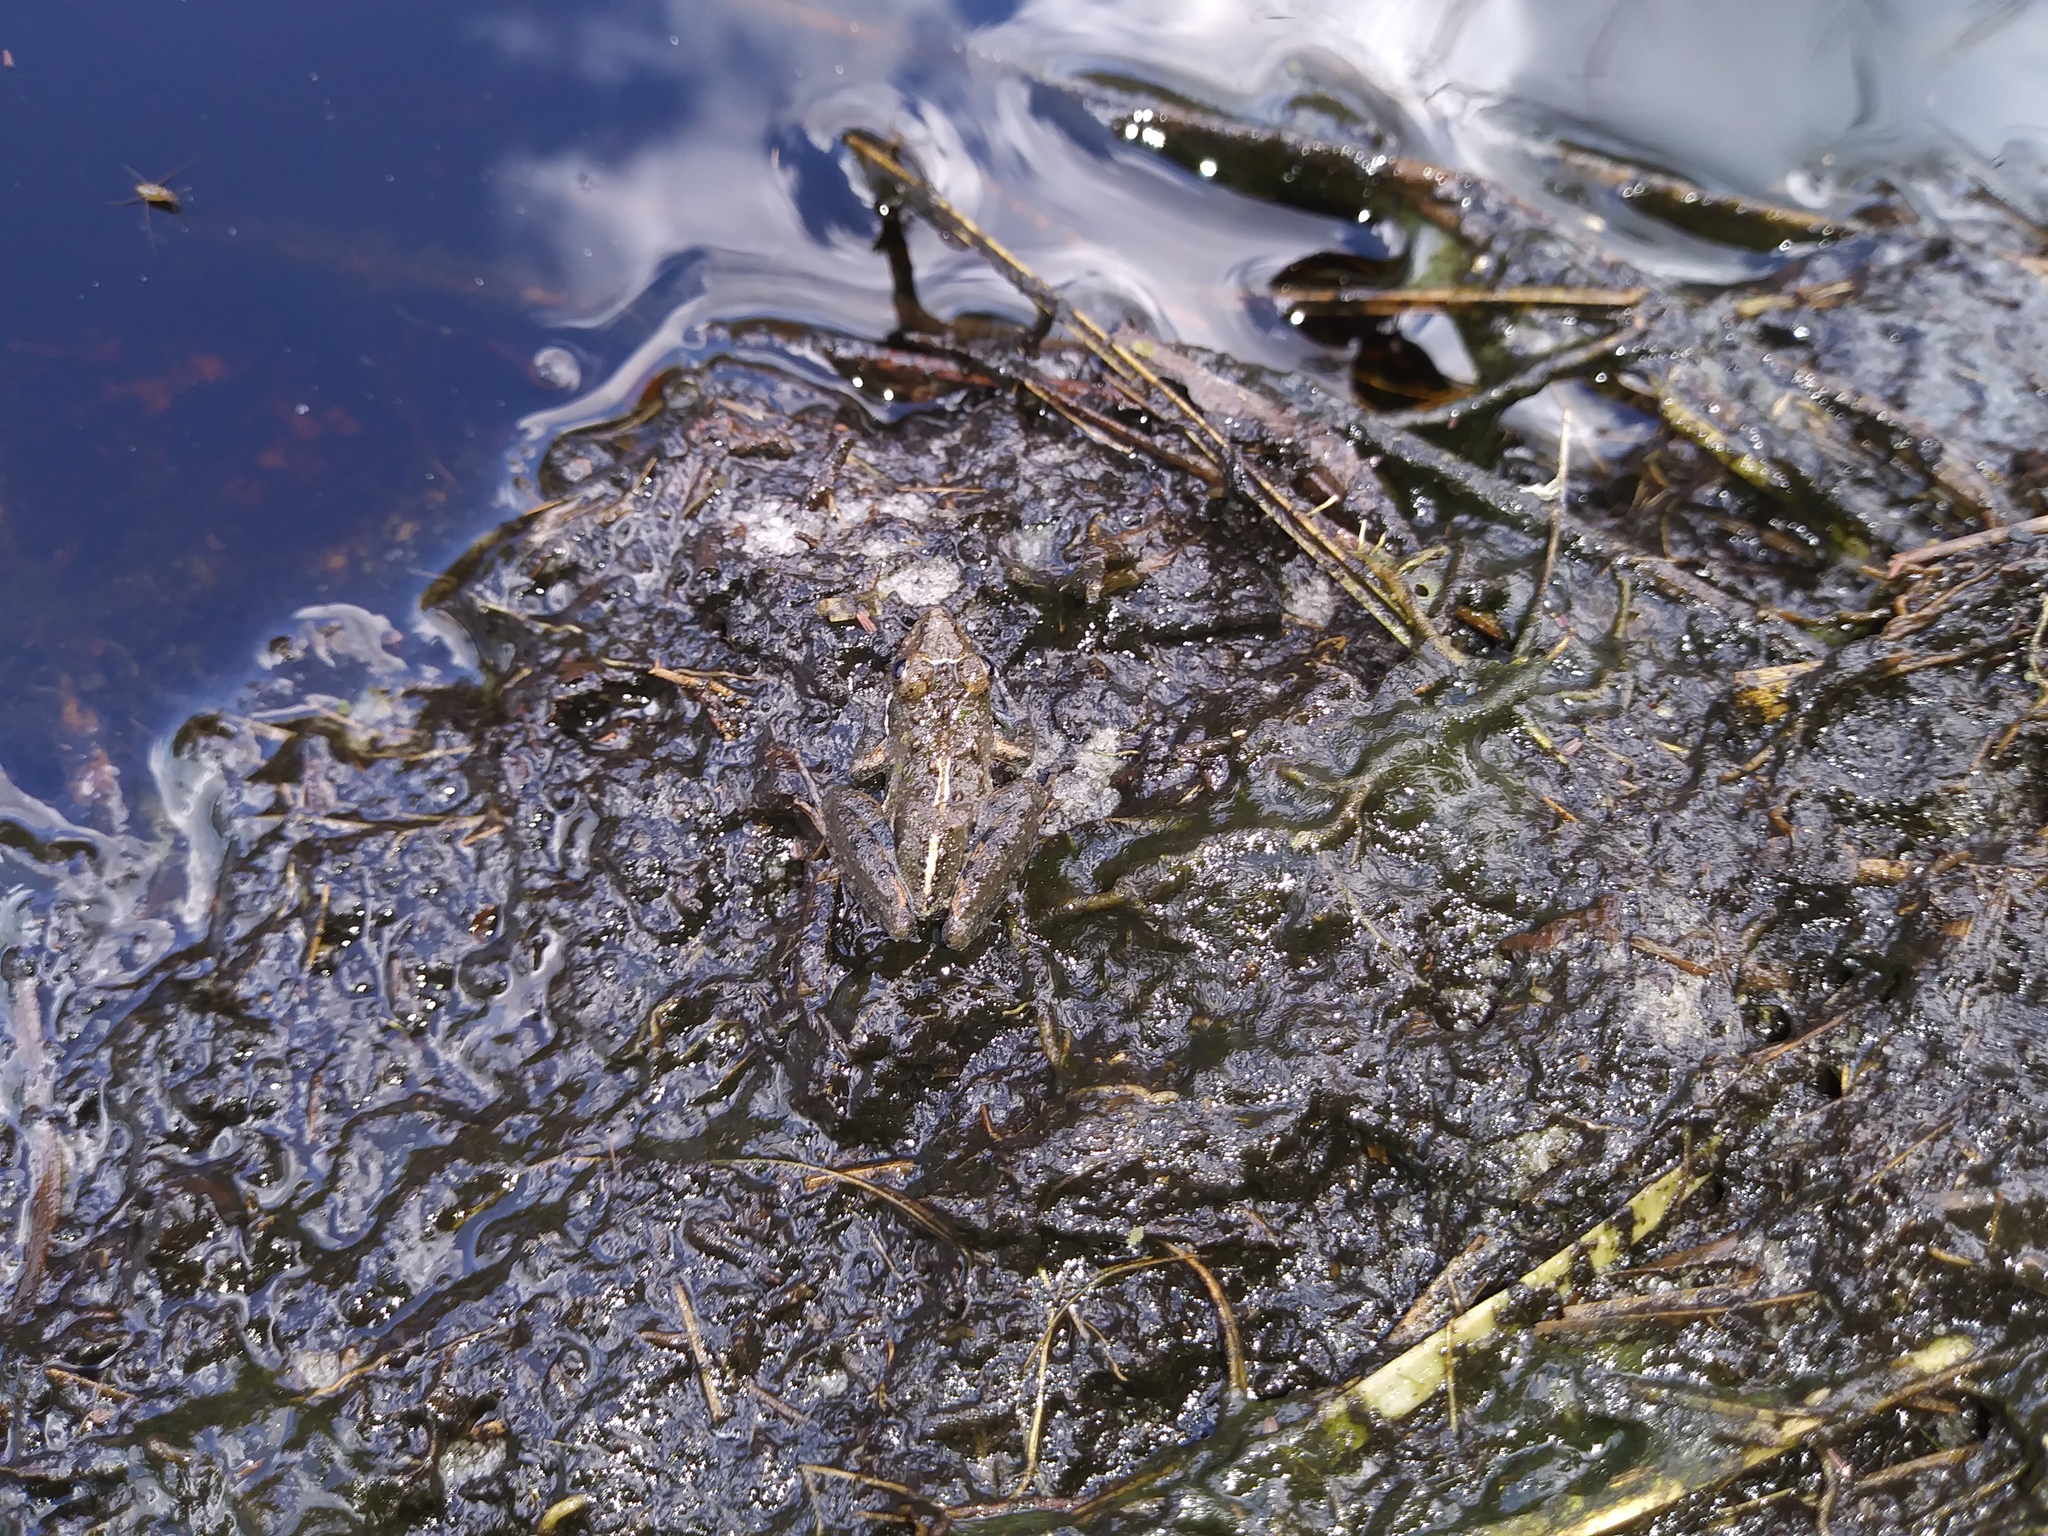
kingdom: Animalia
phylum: Chordata
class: Amphibia
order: Anura
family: Hylidae
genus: Acris
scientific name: Acris gryllus
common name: Southern cricket frog
